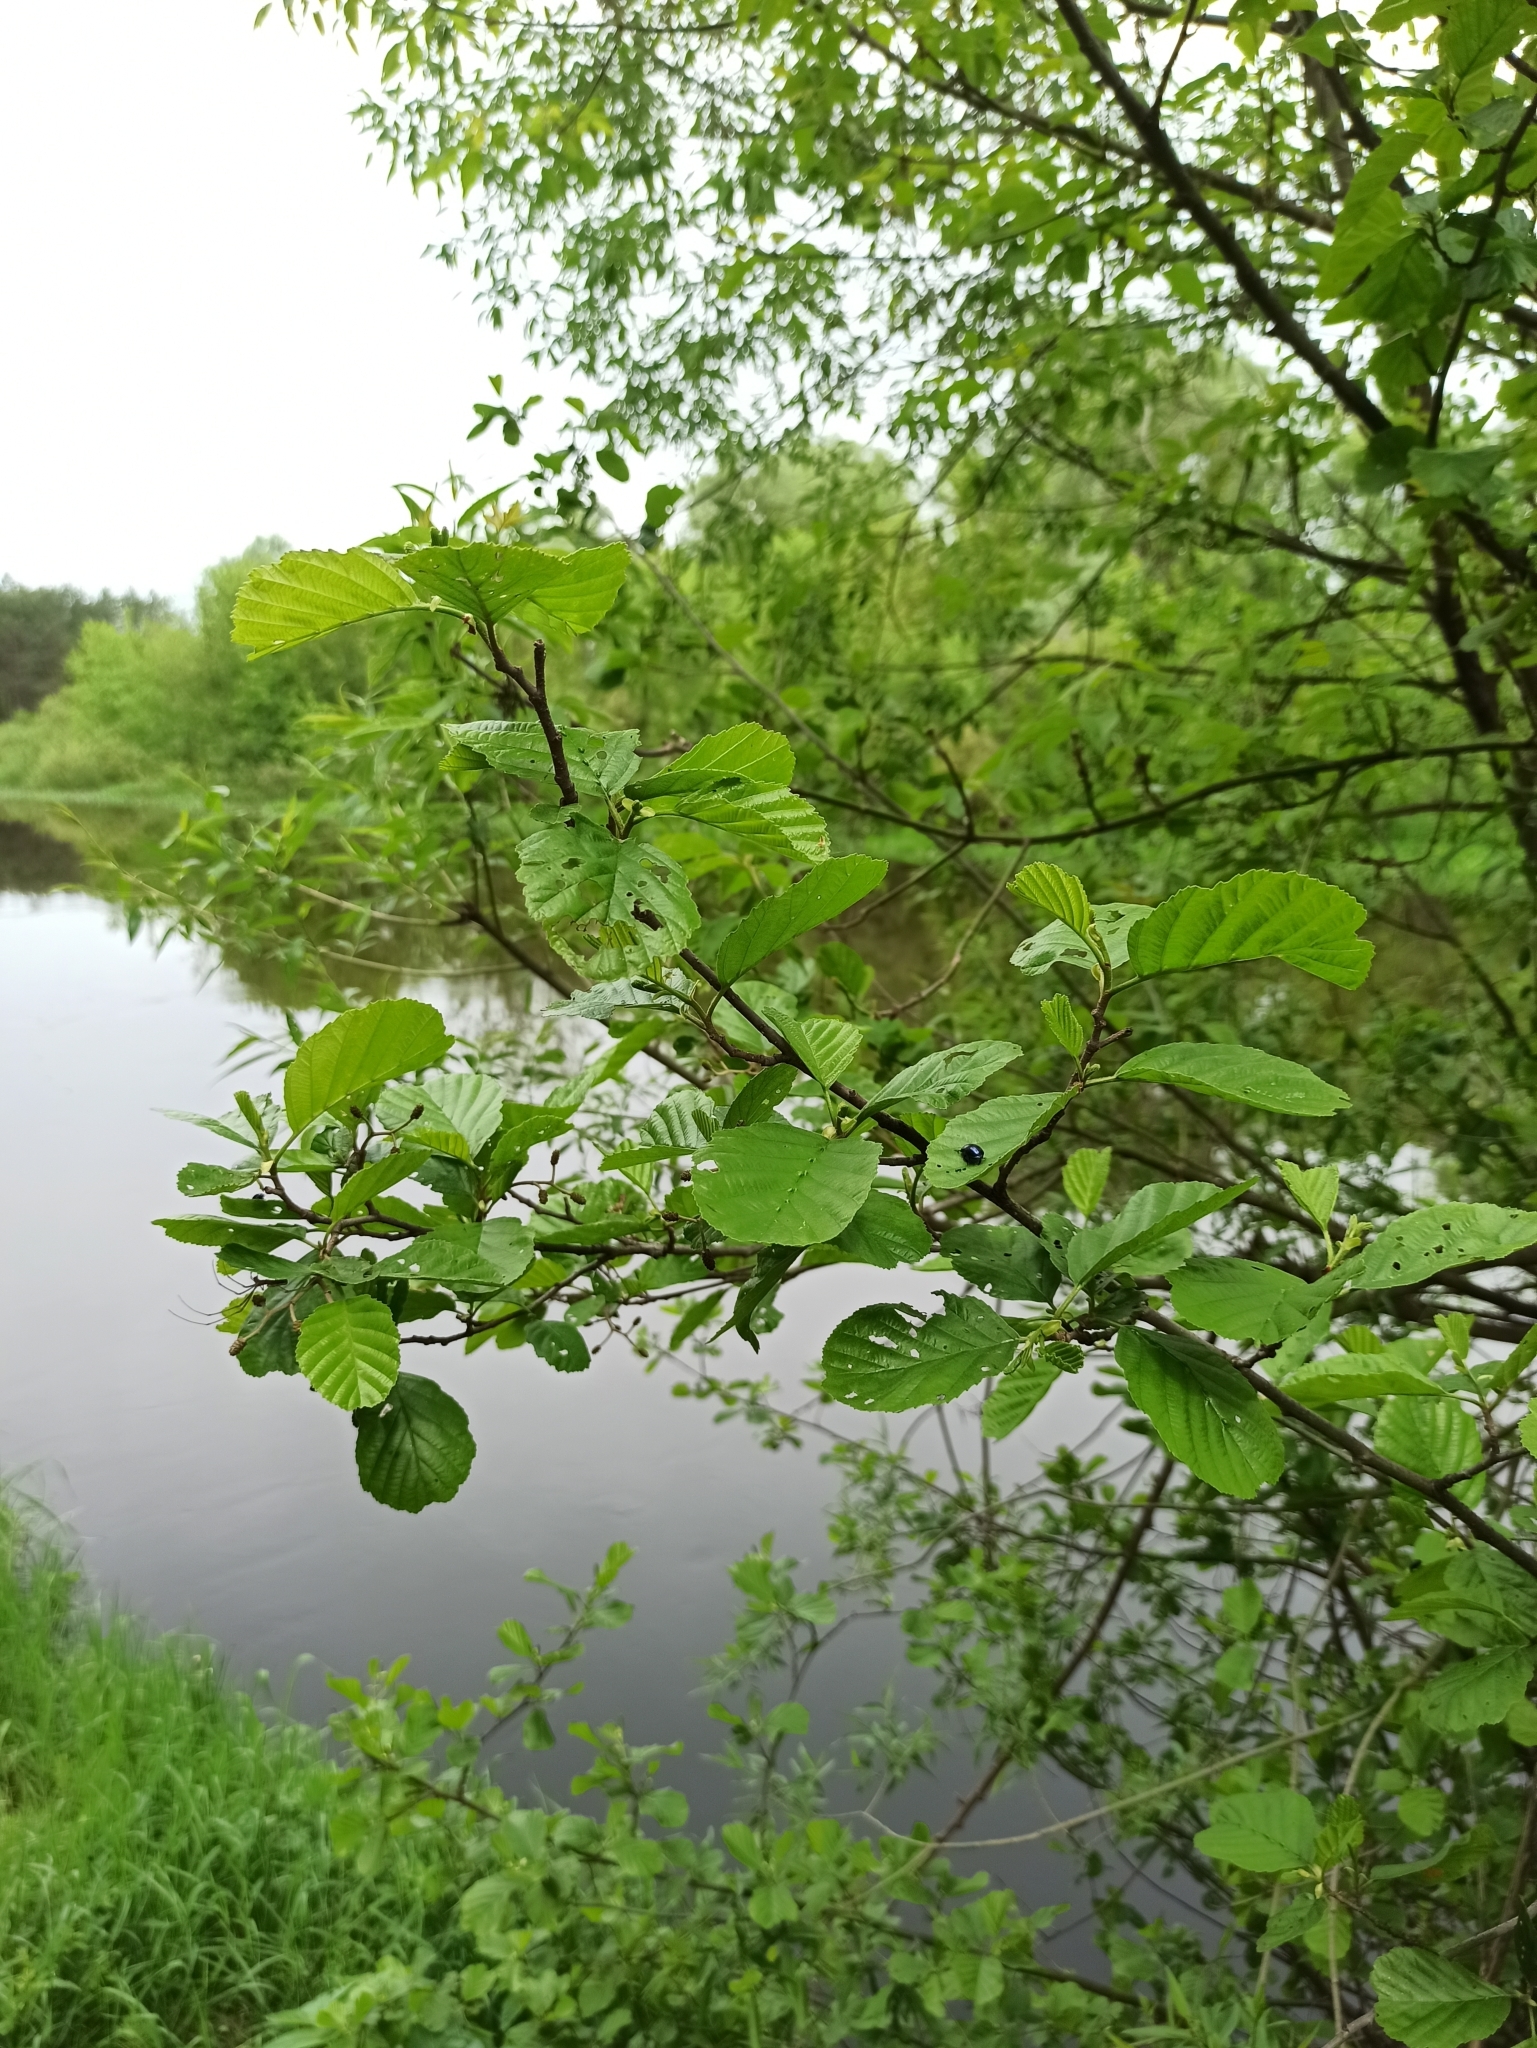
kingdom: Plantae
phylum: Tracheophyta
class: Magnoliopsida
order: Fagales
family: Betulaceae
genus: Alnus
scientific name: Alnus glutinosa
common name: Black alder
